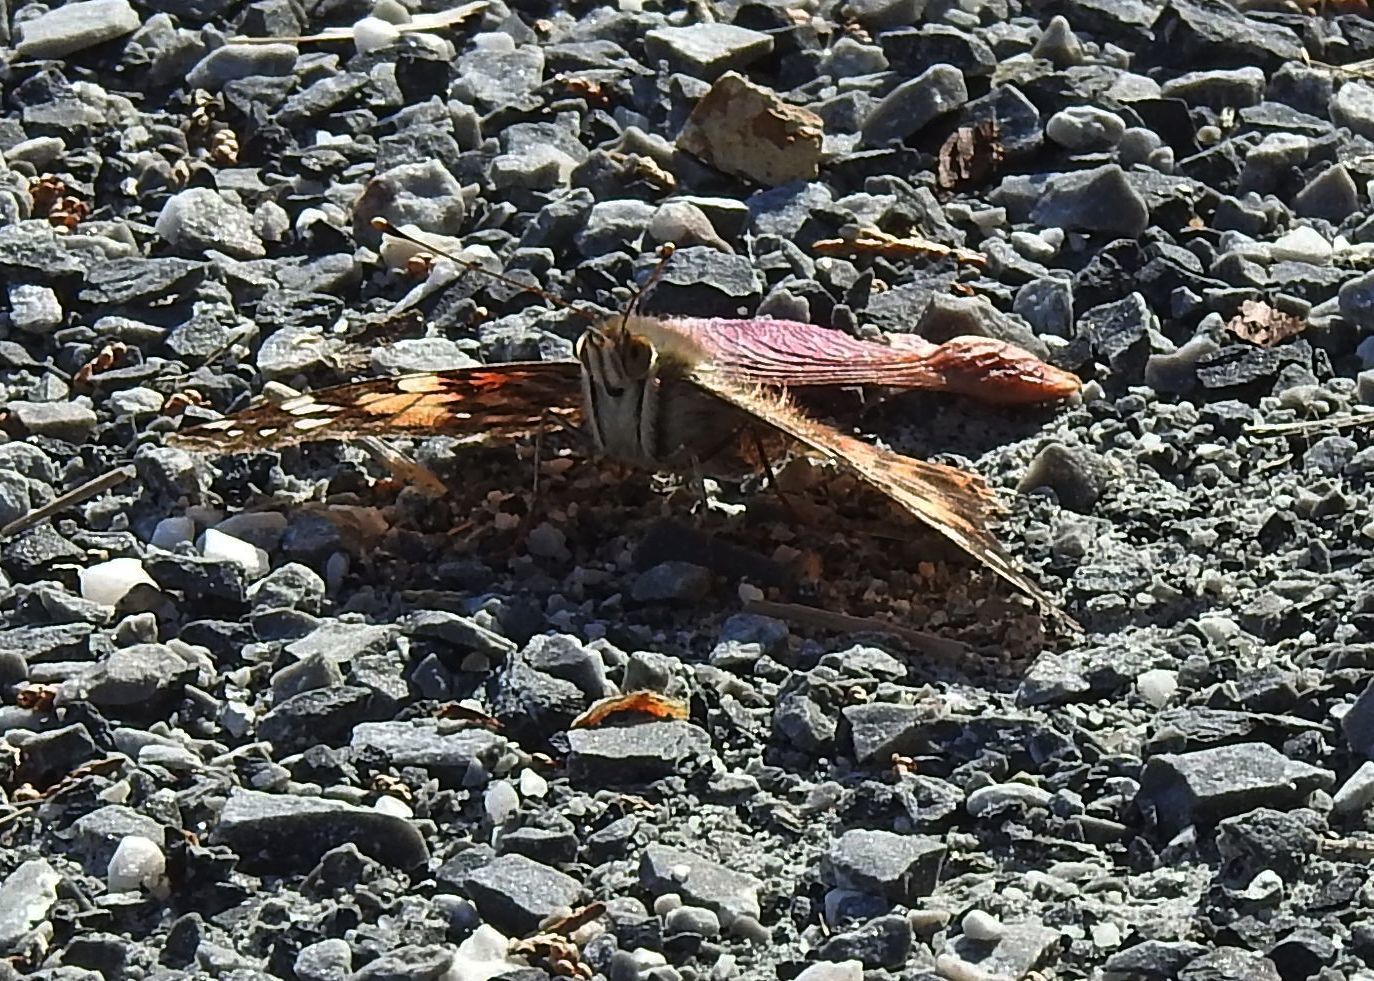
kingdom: Animalia
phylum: Arthropoda
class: Insecta
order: Lepidoptera
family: Nymphalidae
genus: Vanessa
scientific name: Vanessa cardui
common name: Painted lady
